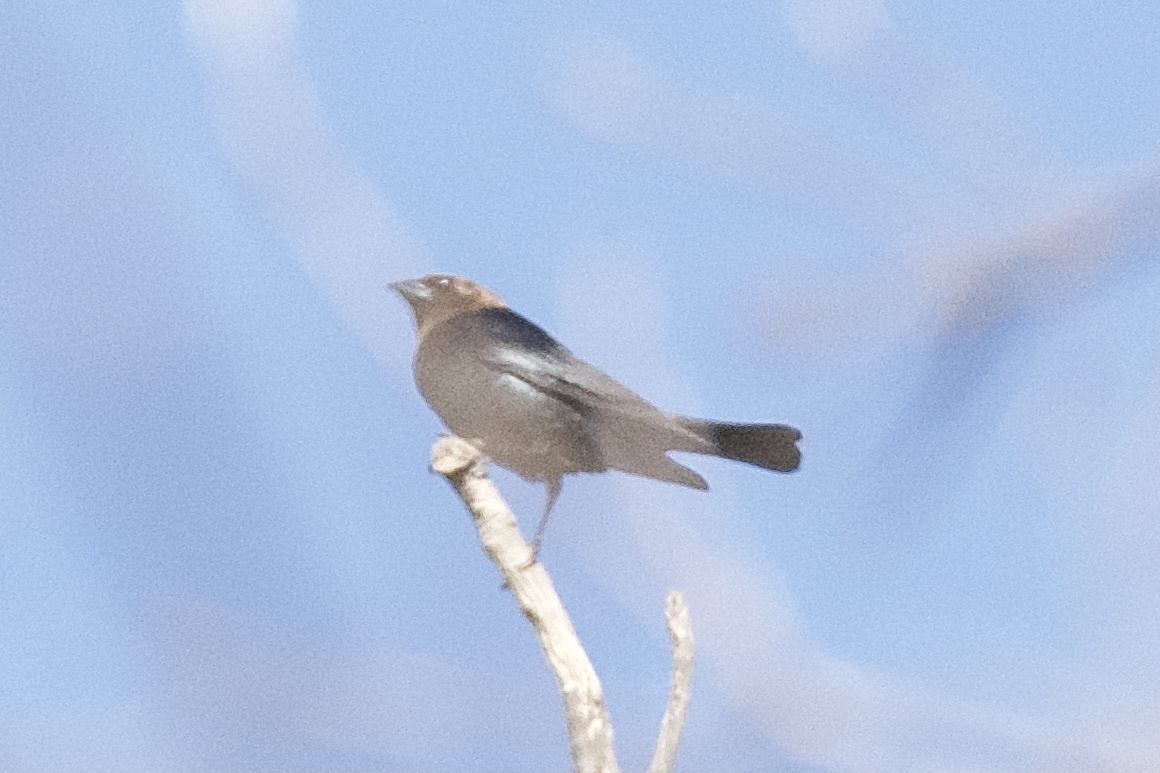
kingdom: Animalia
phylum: Chordata
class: Aves
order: Passeriformes
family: Icteridae
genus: Molothrus
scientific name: Molothrus ater
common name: Brown-headed cowbird
